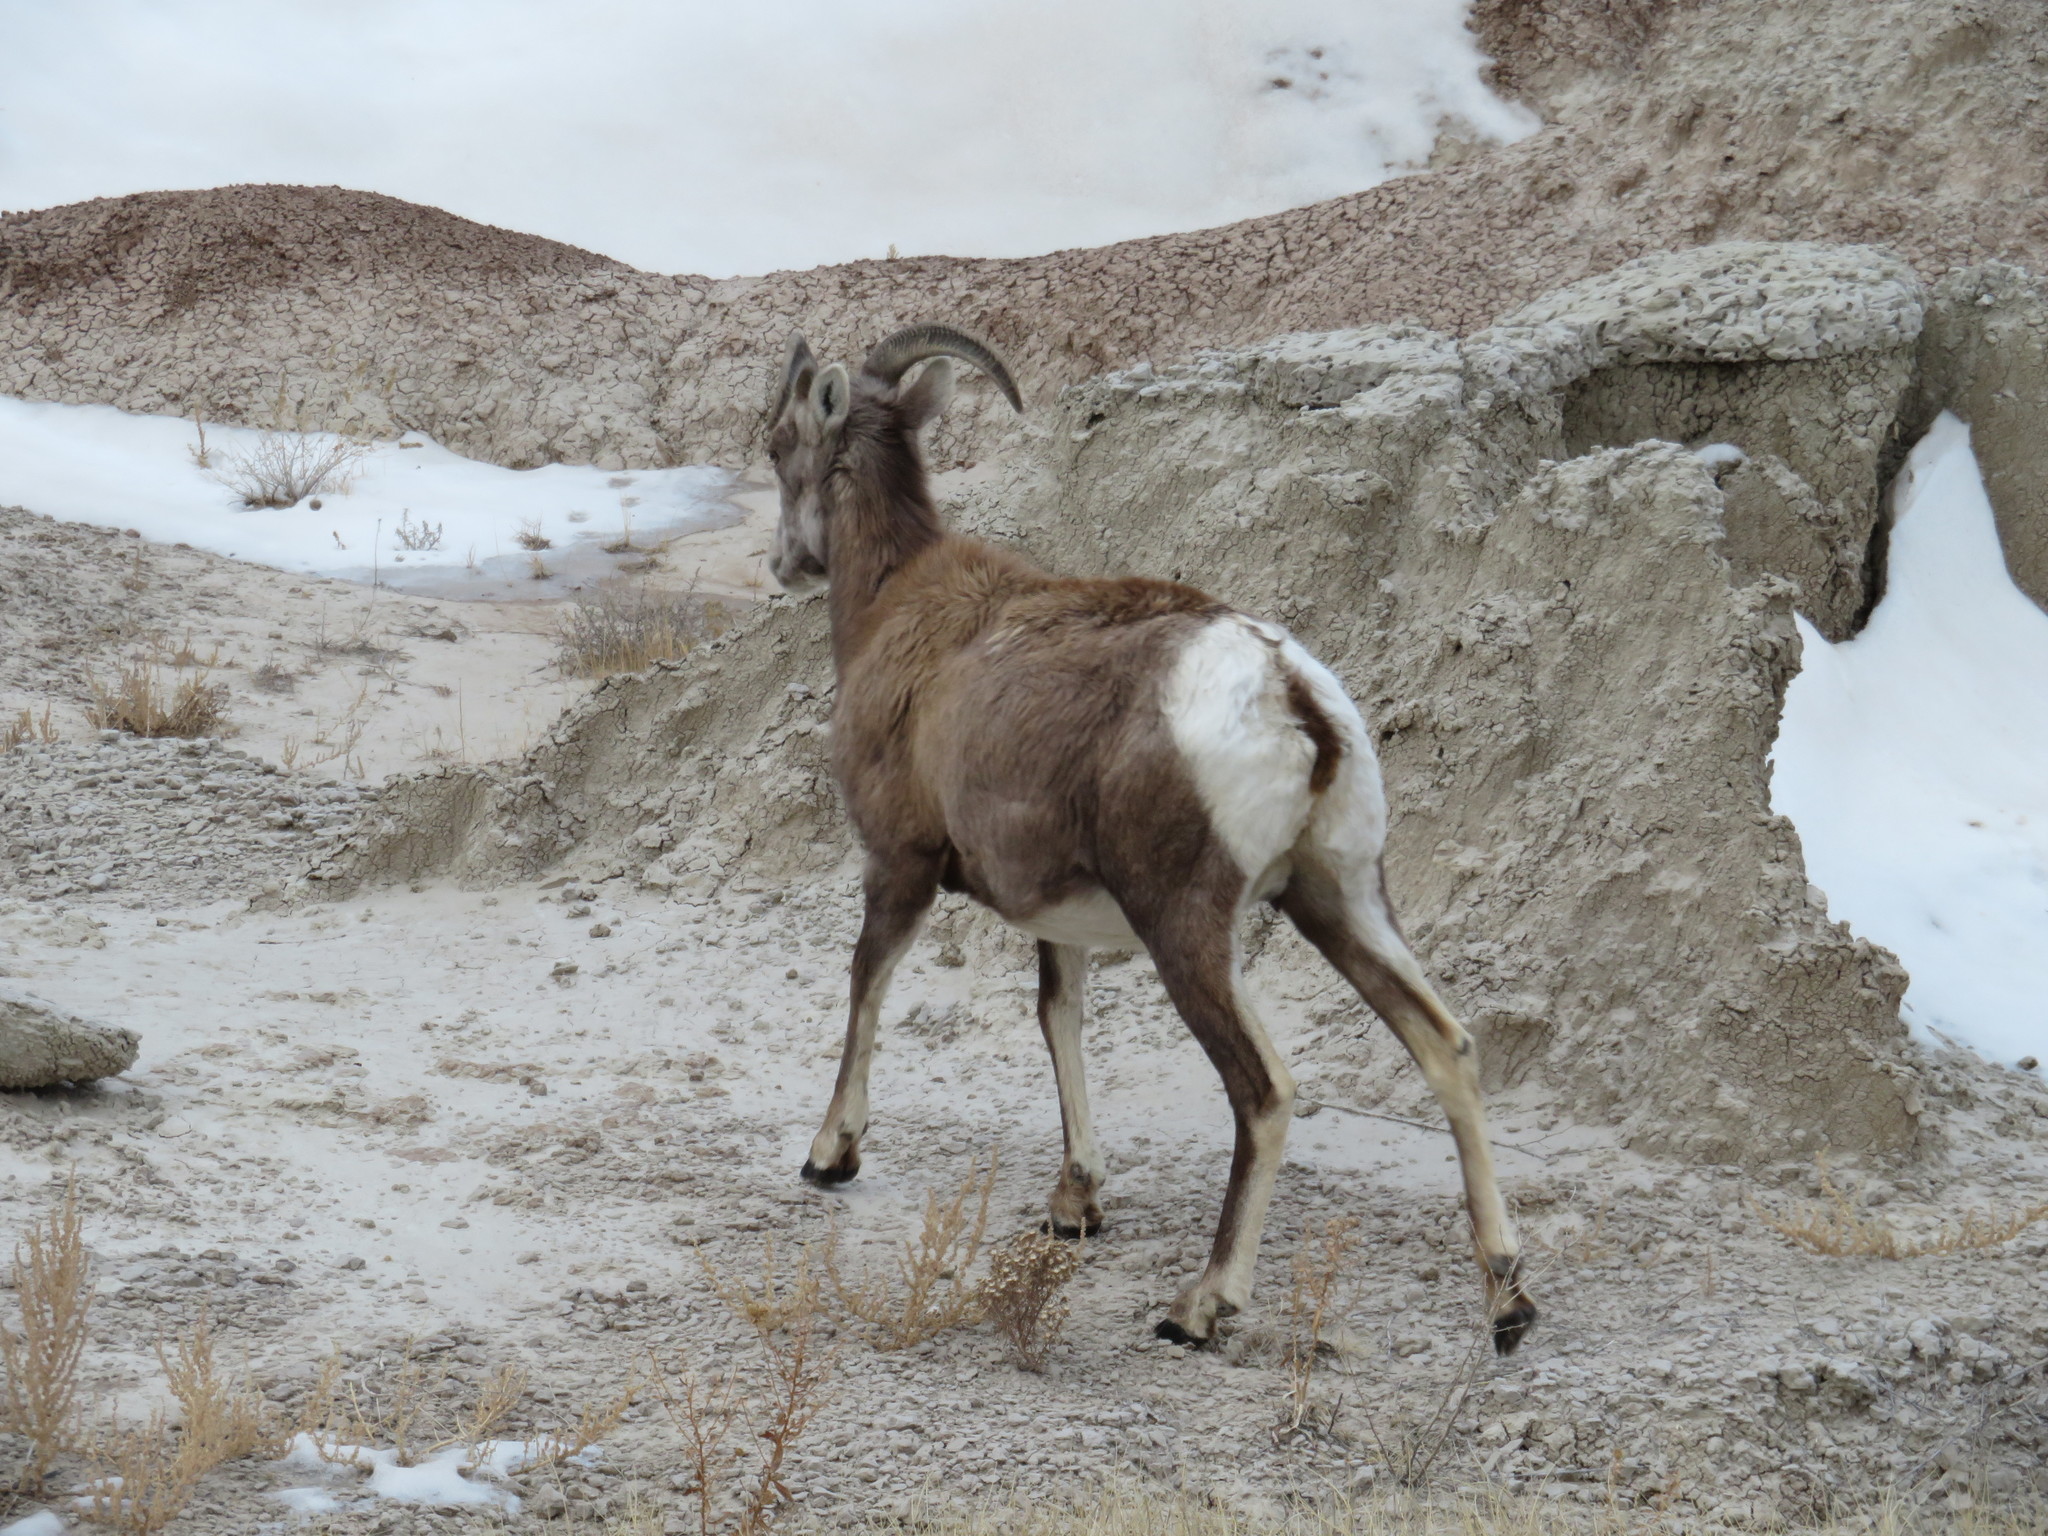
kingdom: Animalia
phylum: Chordata
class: Mammalia
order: Artiodactyla
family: Bovidae
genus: Ovis
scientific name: Ovis canadensis
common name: Bighorn sheep
